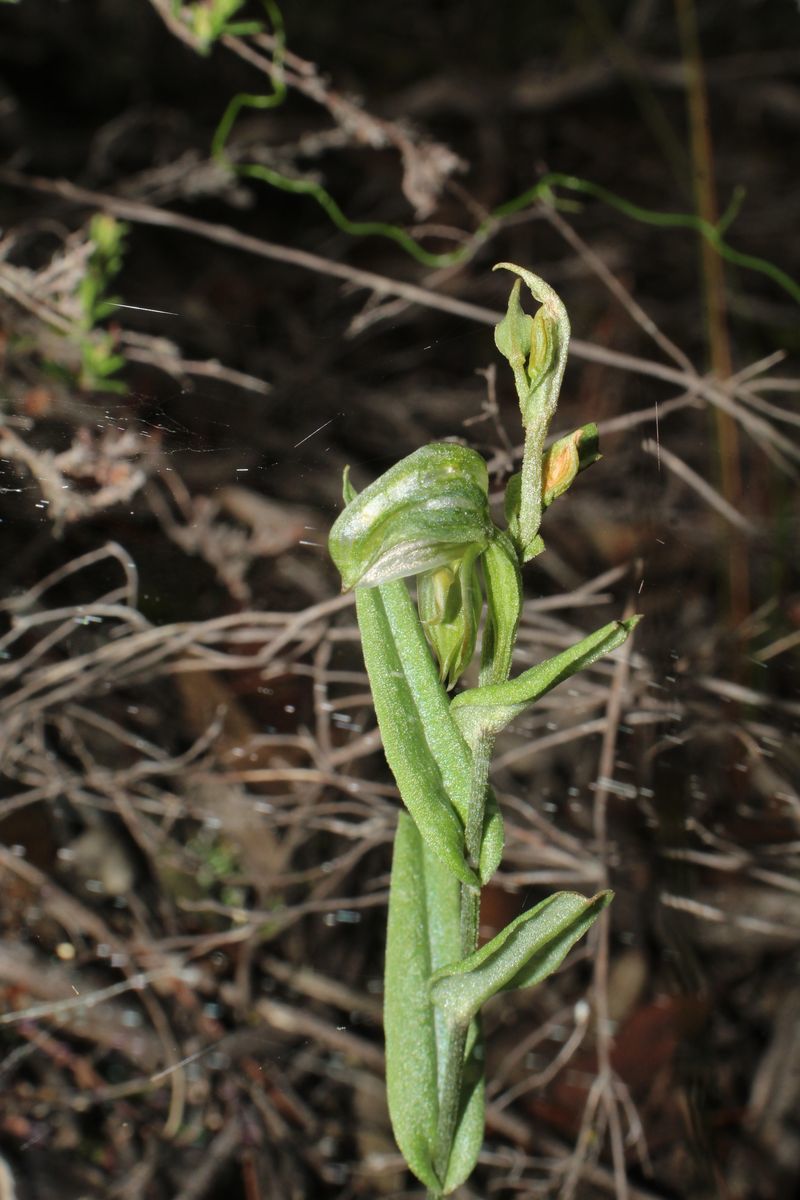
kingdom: Plantae
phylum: Tracheophyta
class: Liliopsida
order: Asparagales
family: Orchidaceae
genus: Pterostylis
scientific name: Pterostylis vittata
